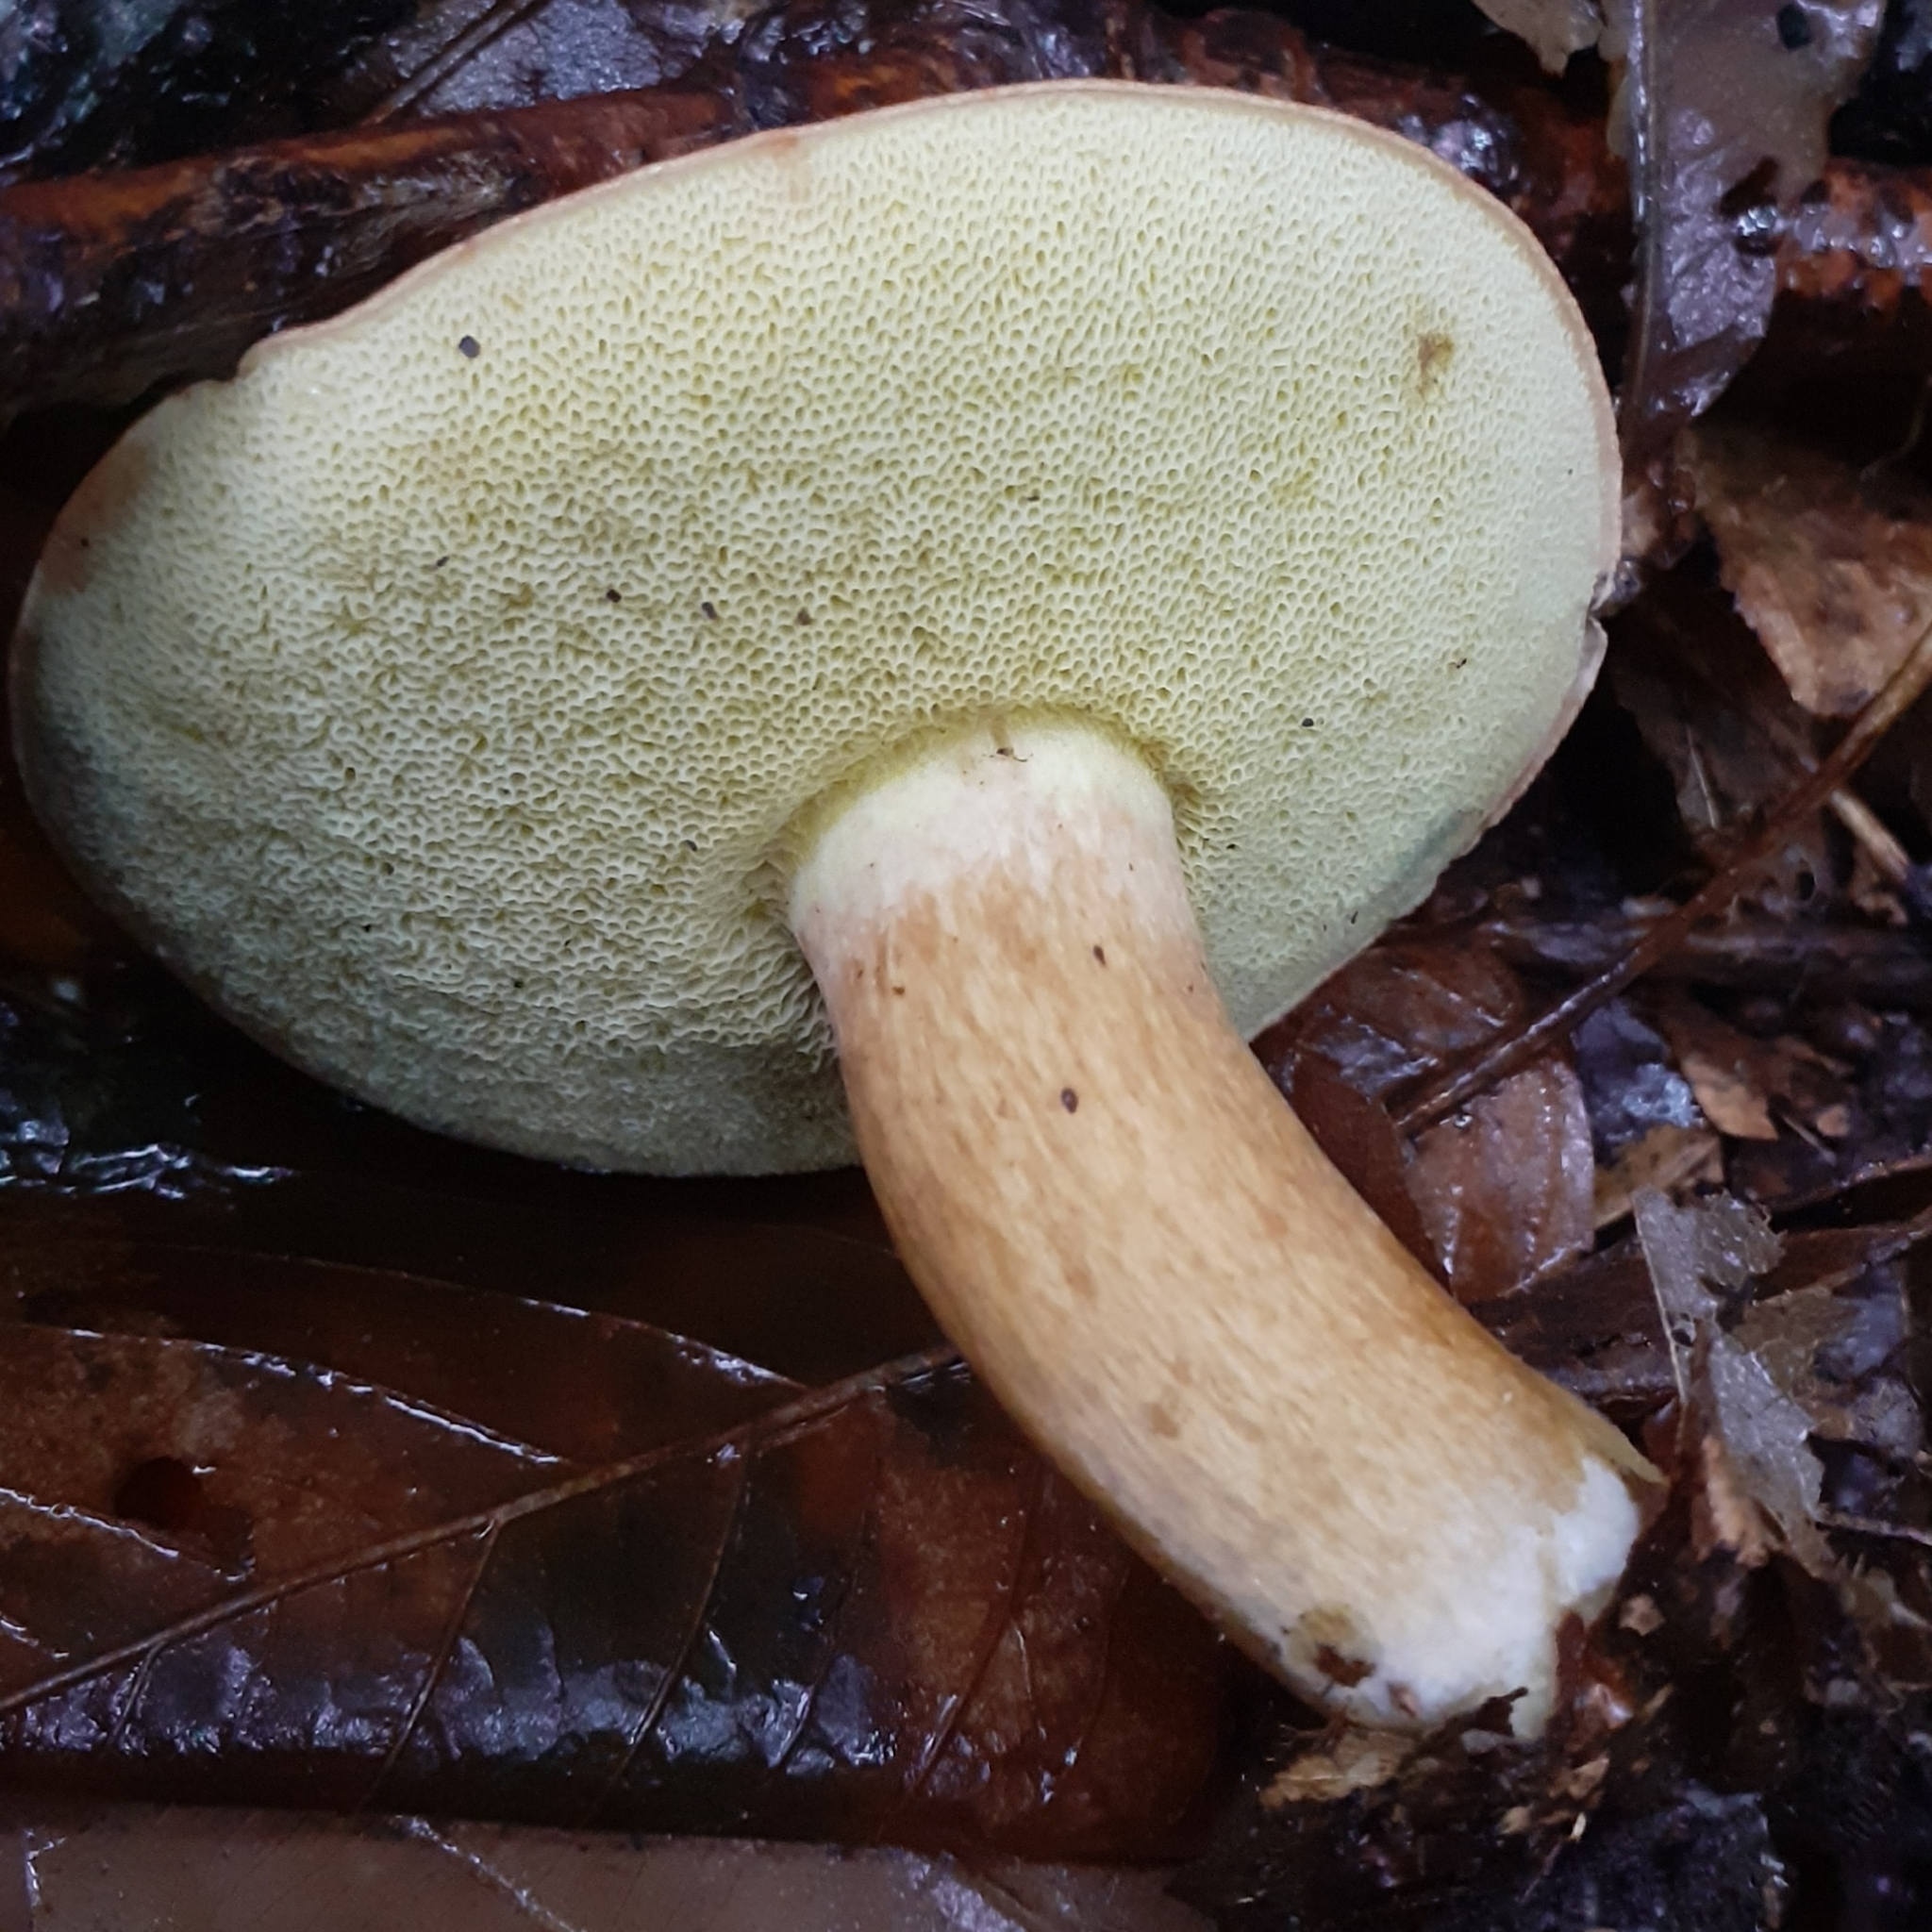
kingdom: Fungi
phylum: Basidiomycota
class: Agaricomycetes
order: Boletales
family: Boletaceae
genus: Imleria
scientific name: Imleria badia
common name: Bay bolete
